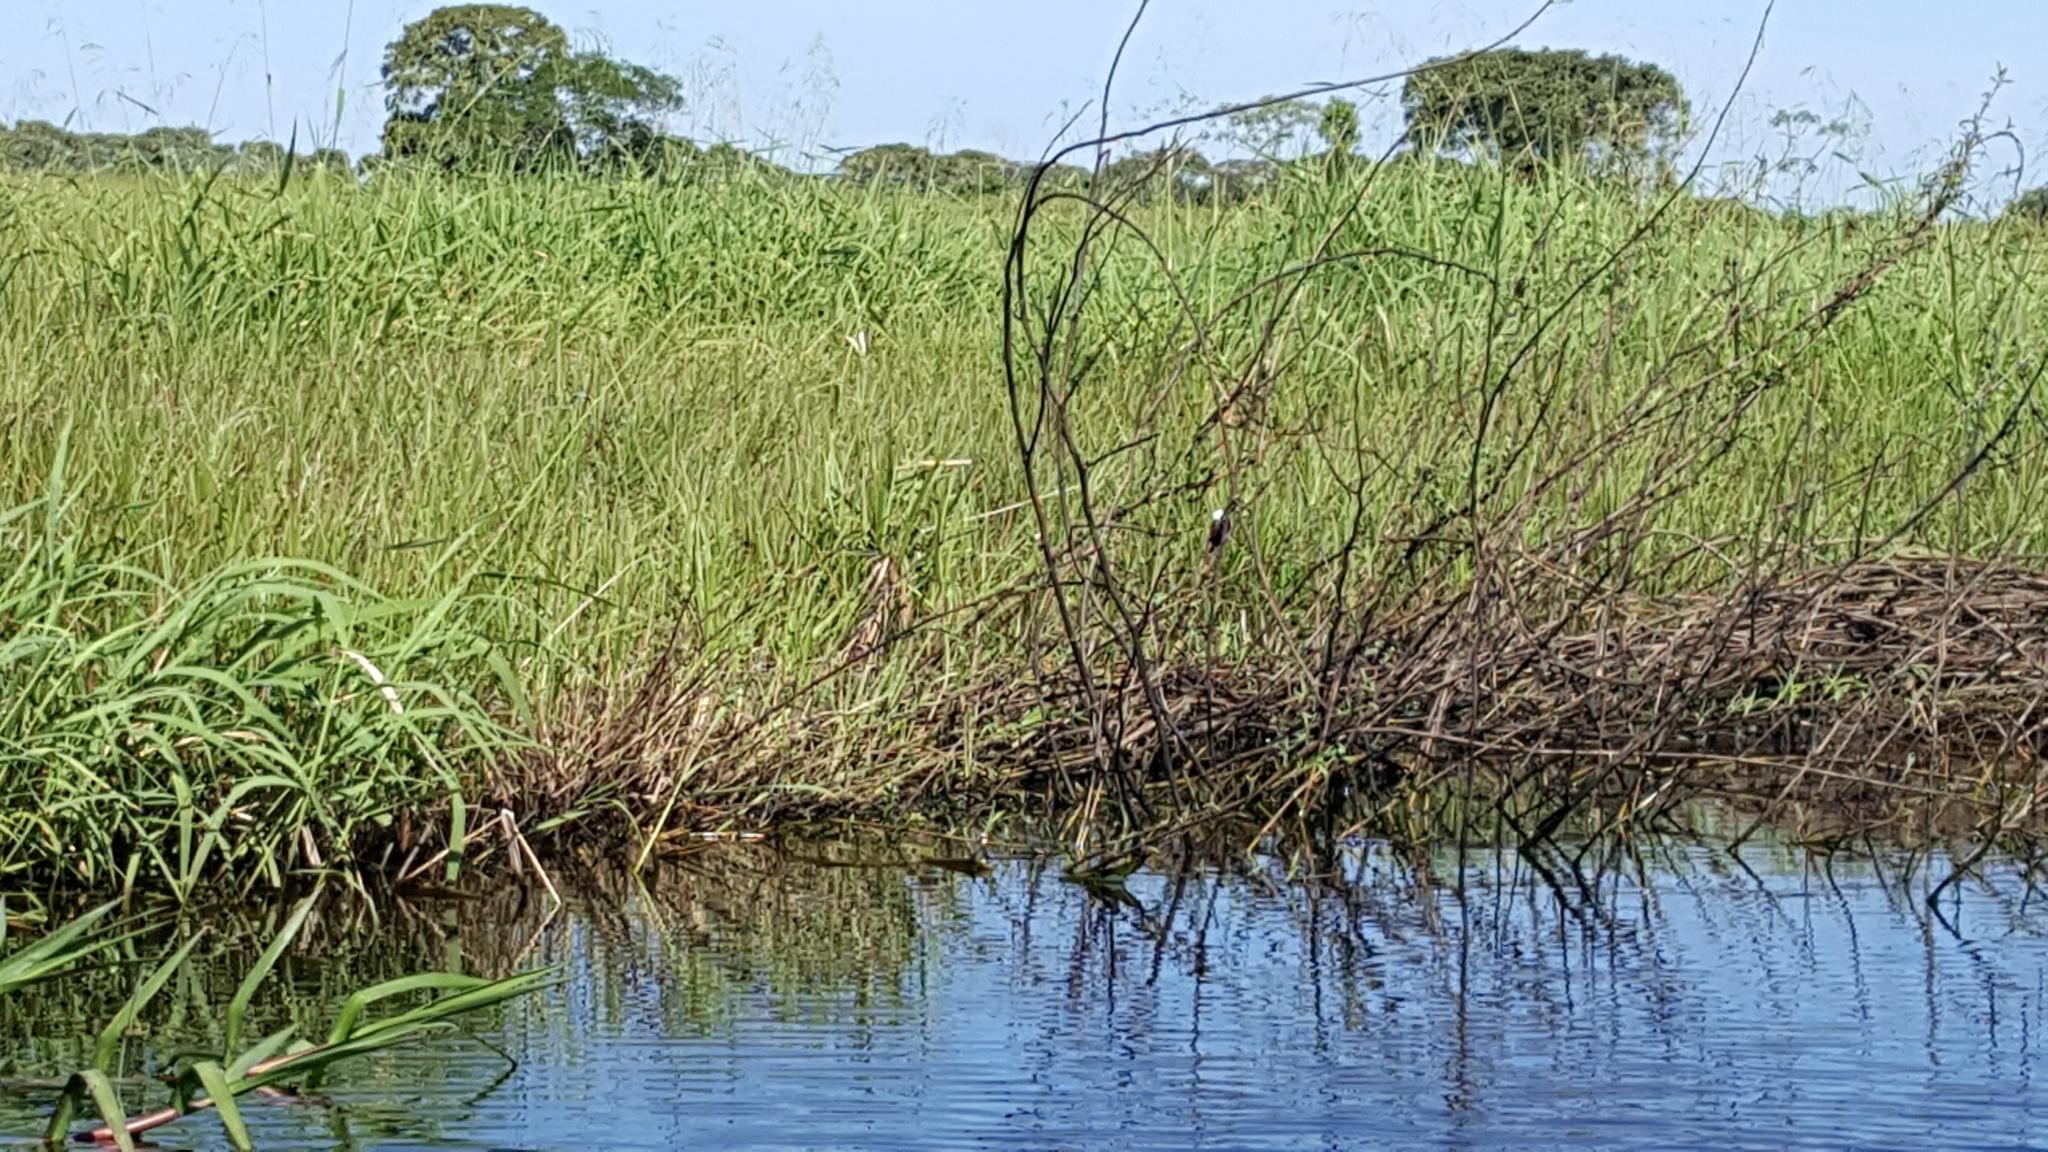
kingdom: Animalia
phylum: Chordata
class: Aves
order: Passeriformes
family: Tyrannidae
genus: Arundinicola
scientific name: Arundinicola leucocephala
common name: White-headed marsh tyrant
